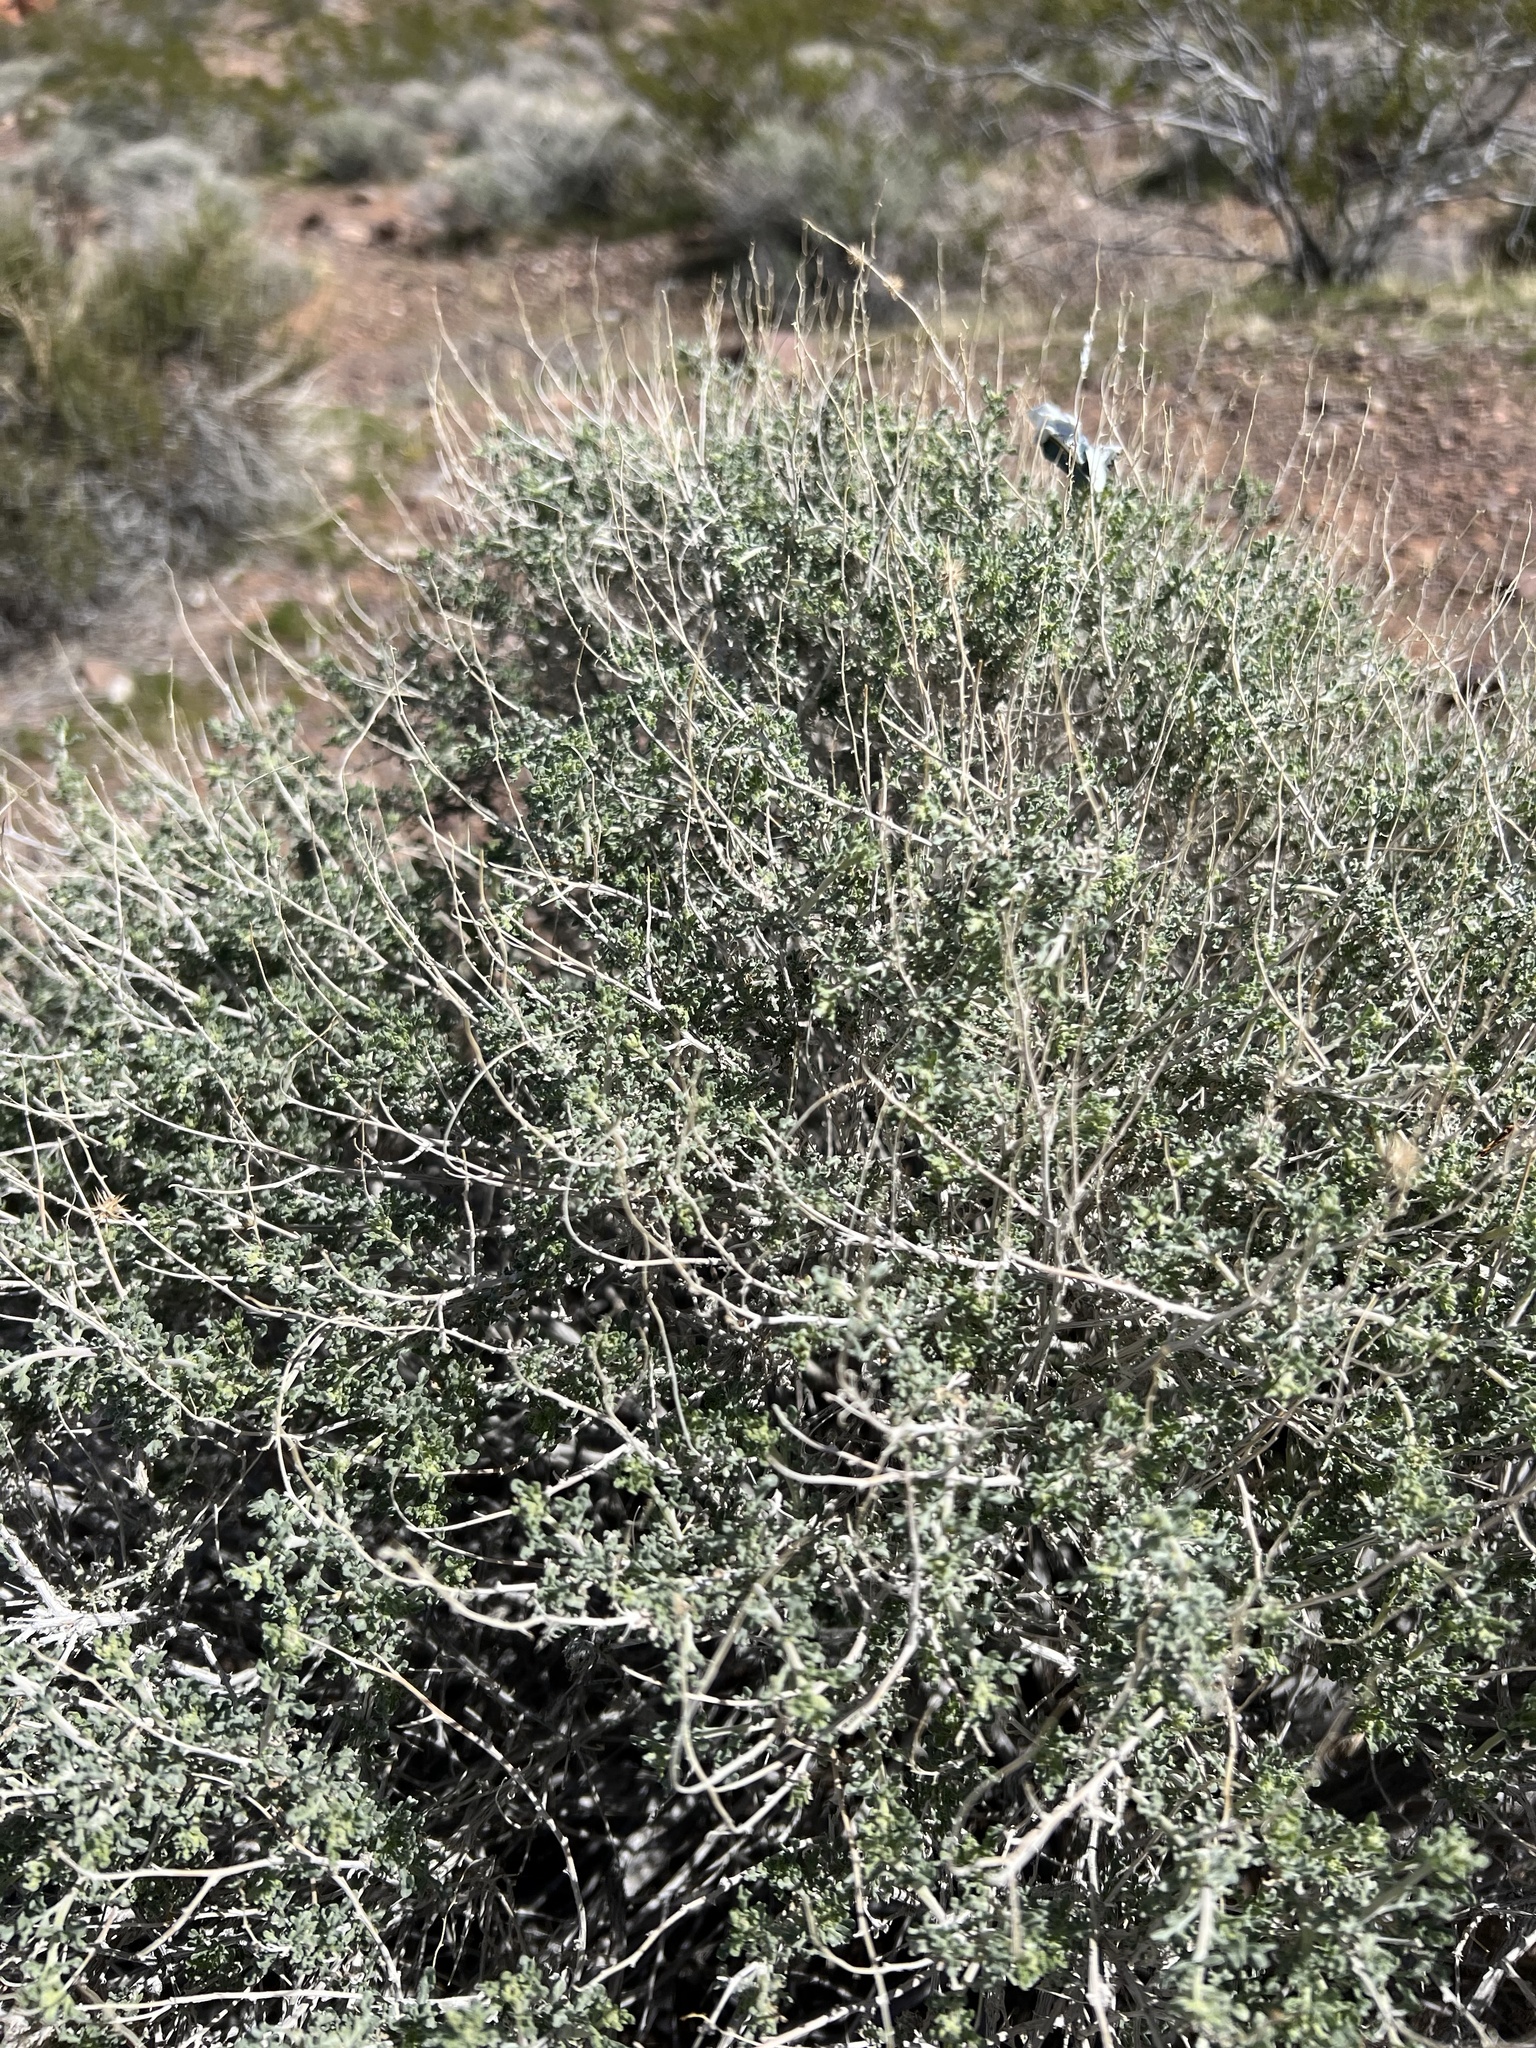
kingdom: Plantae
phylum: Tracheophyta
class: Magnoliopsida
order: Asterales
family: Asteraceae
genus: Ambrosia
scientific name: Ambrosia dumosa
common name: Bur-sage
